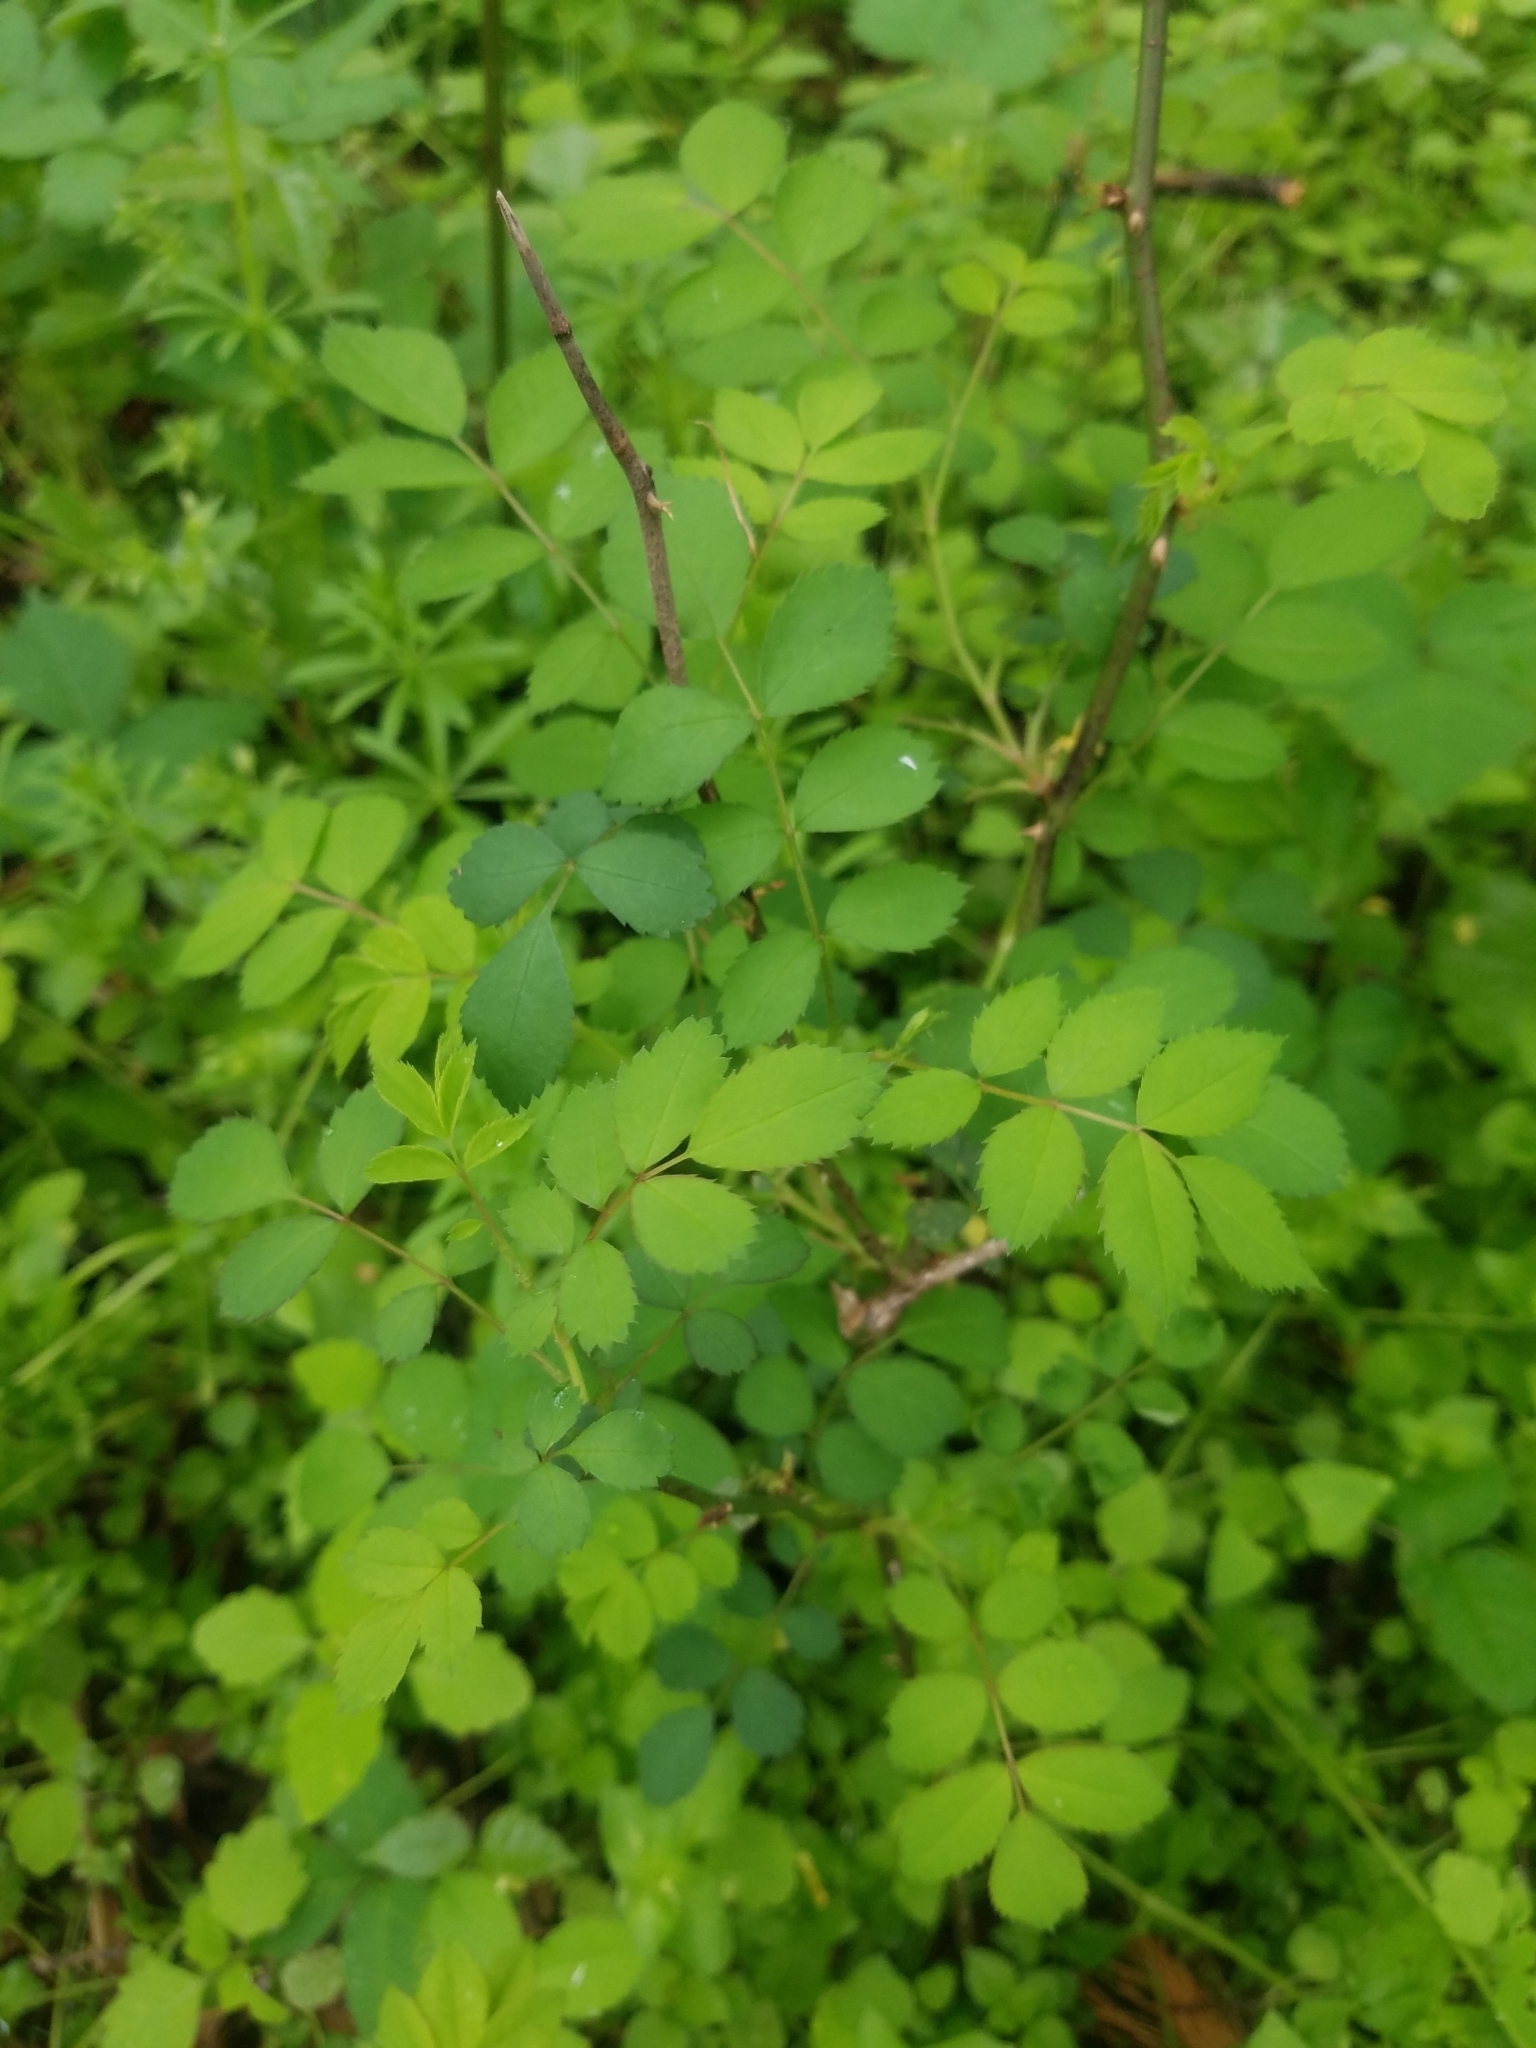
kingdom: Plantae
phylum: Tracheophyta
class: Magnoliopsida
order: Rosales
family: Rosaceae
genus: Rosa
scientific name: Rosa multiflora
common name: Multiflora rose
